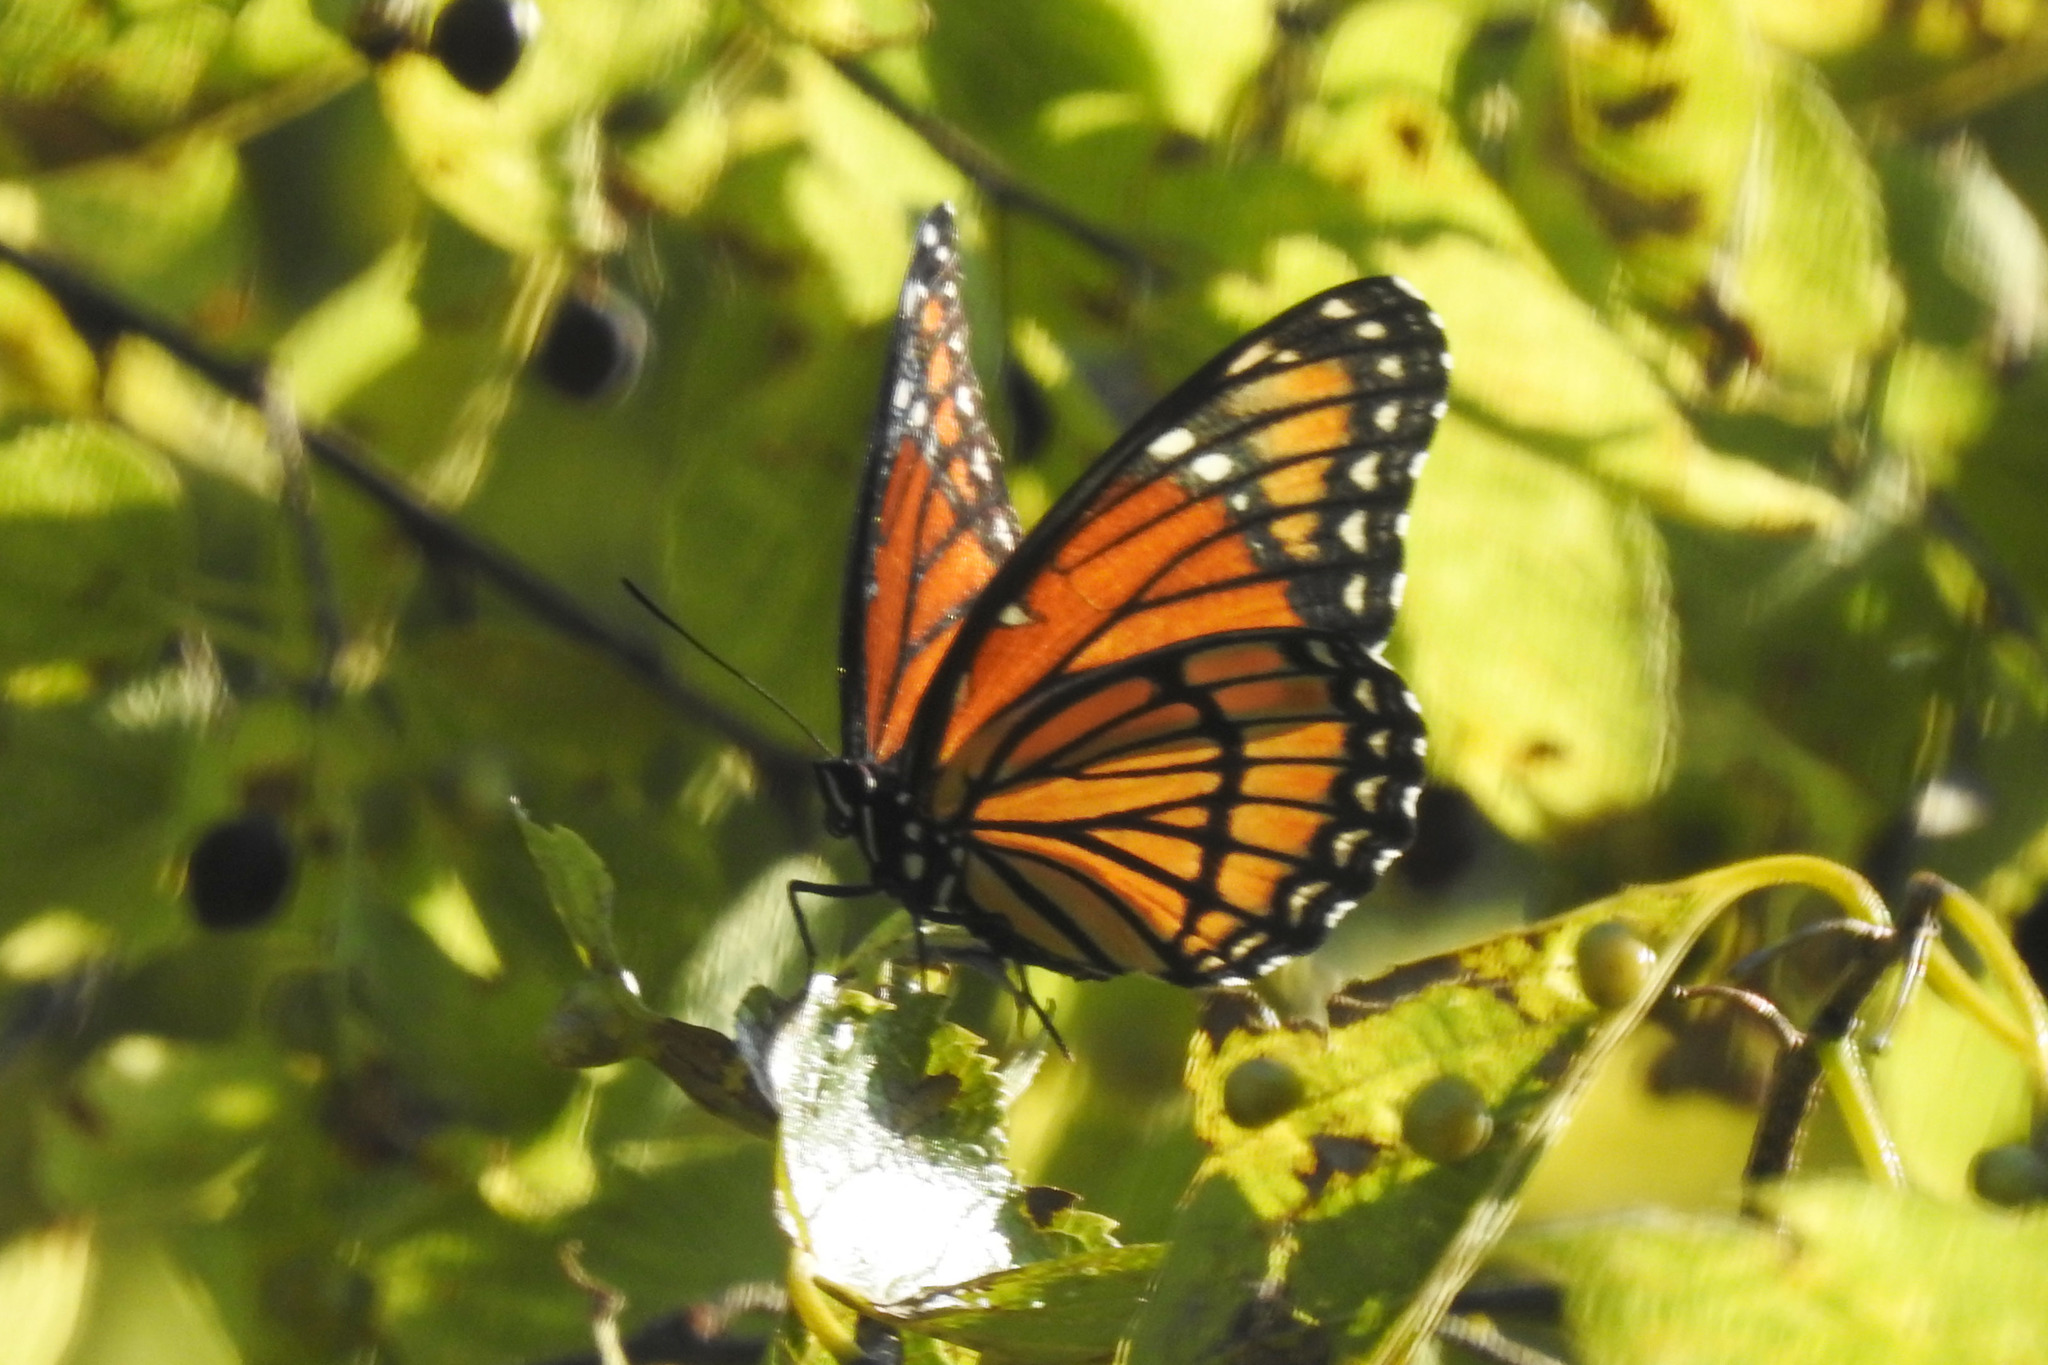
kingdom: Animalia
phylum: Arthropoda
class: Insecta
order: Lepidoptera
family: Nymphalidae
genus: Limenitis
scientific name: Limenitis archippus
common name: Viceroy
